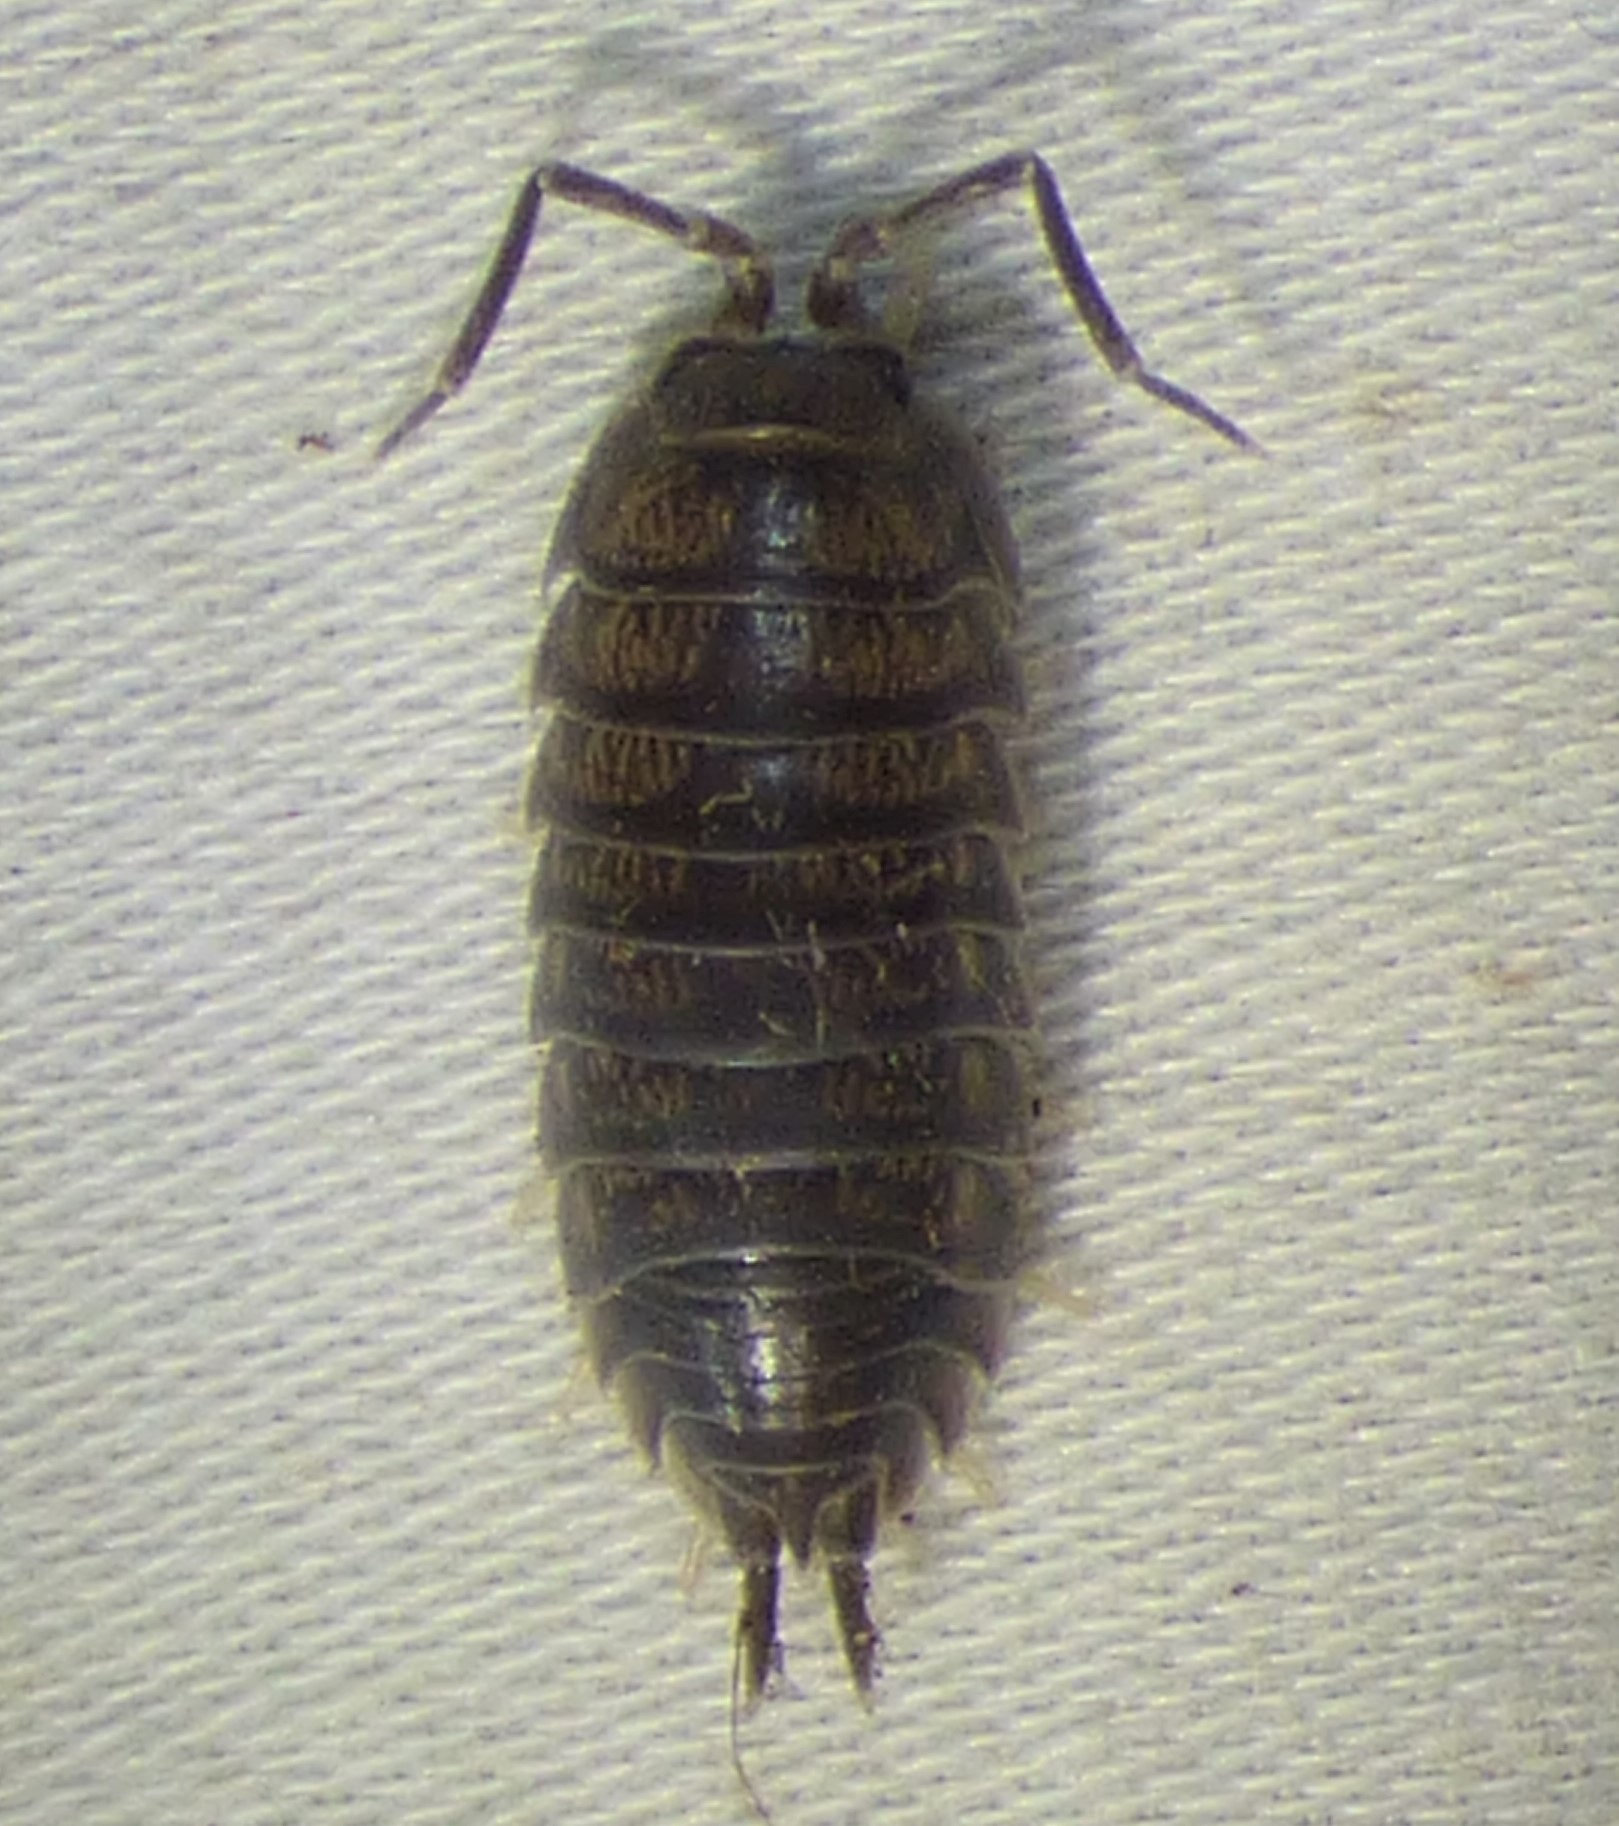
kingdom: Animalia
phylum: Arthropoda
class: Malacostraca
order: Isopoda
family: Cylisticidae
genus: Cylisticus
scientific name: Cylisticus convexus
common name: Curly woodlouse
